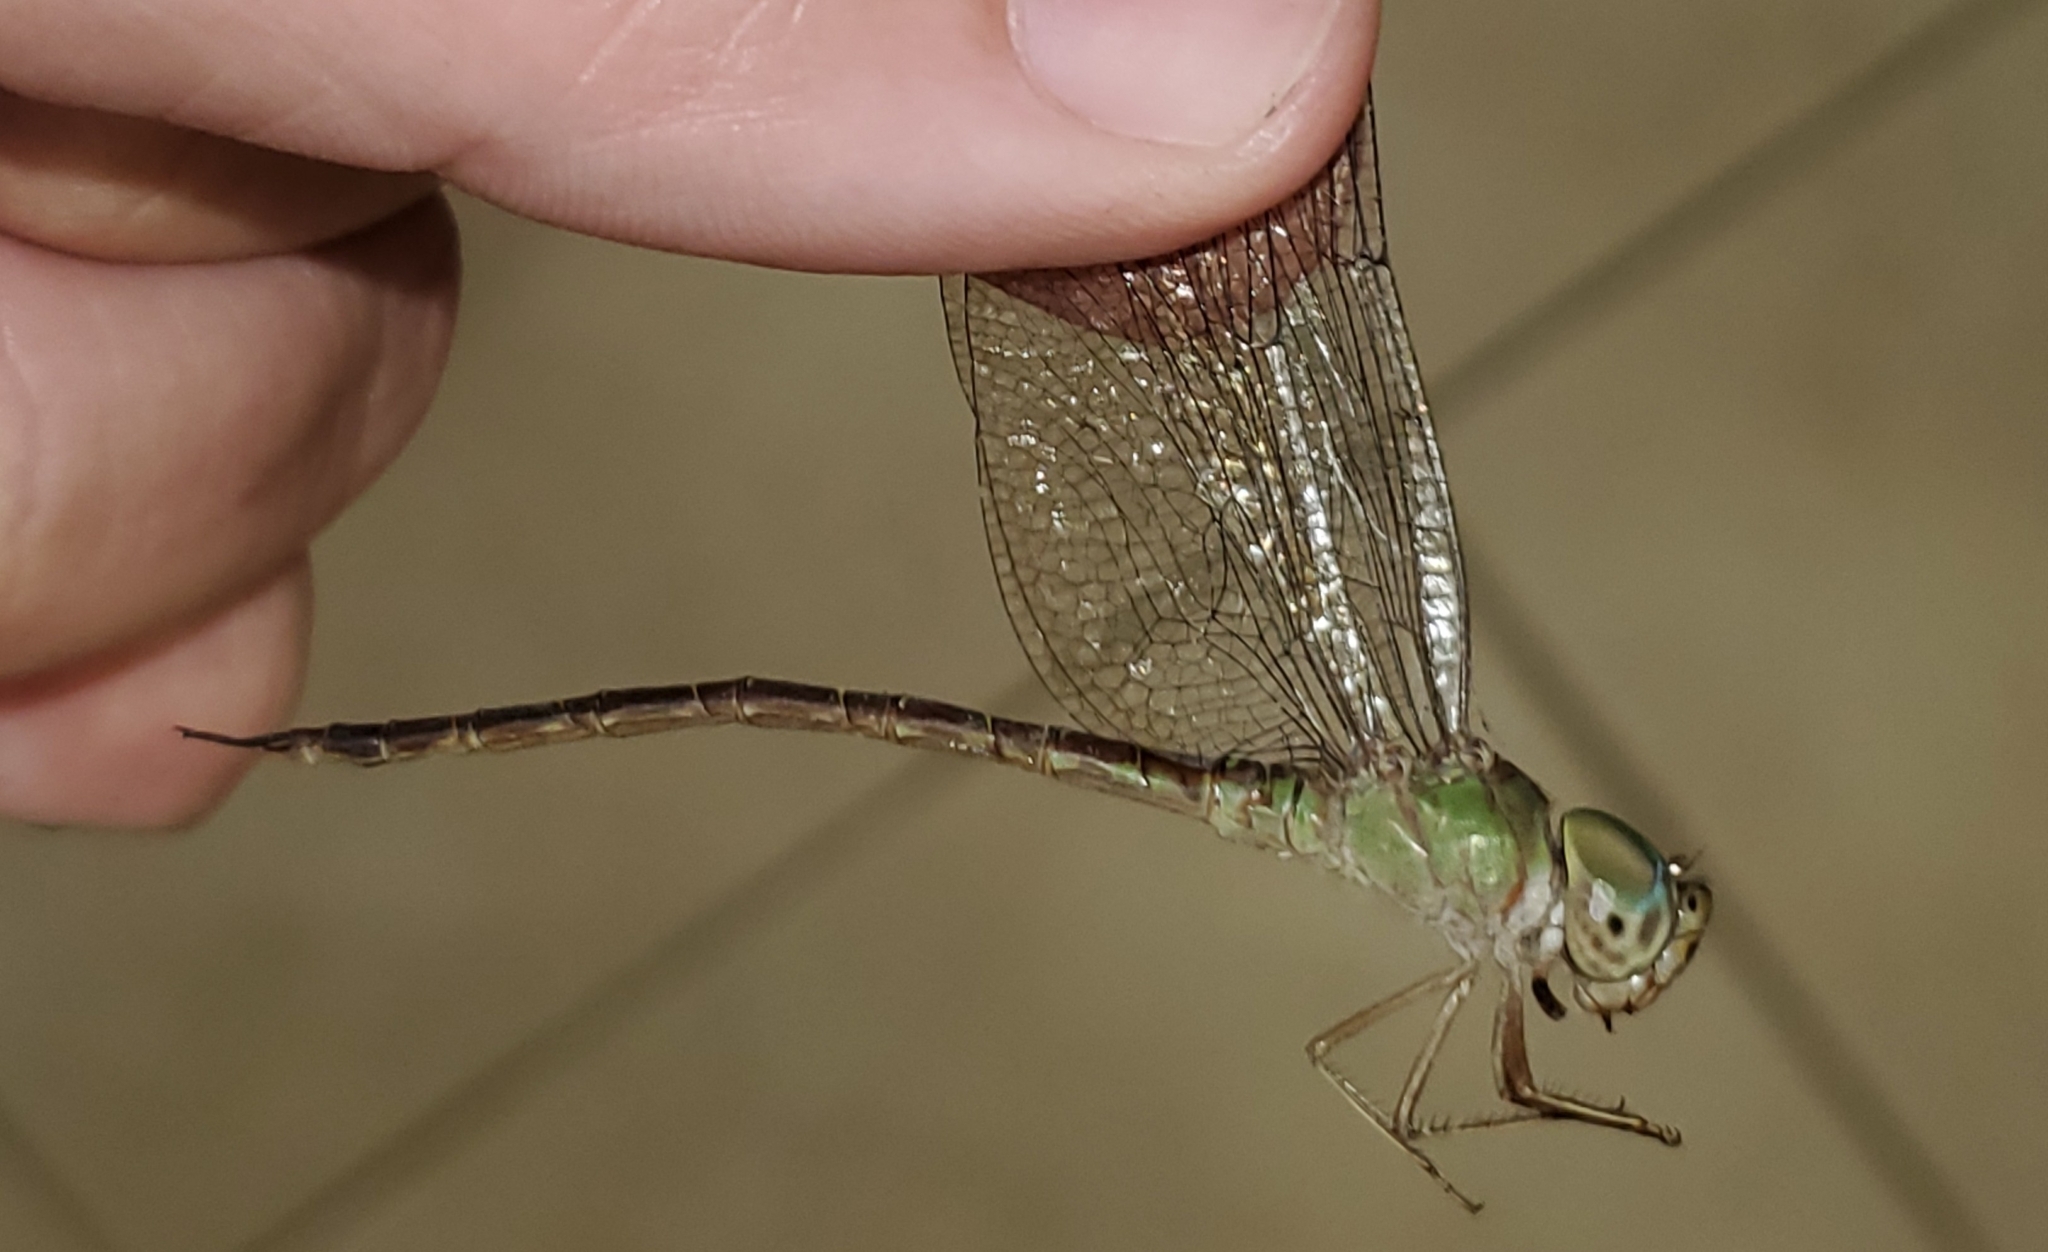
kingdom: Animalia
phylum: Arthropoda
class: Insecta
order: Odonata
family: Aeshnidae
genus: Triacanthagyna
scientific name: Triacanthagyna septima
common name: Pale-green darner
